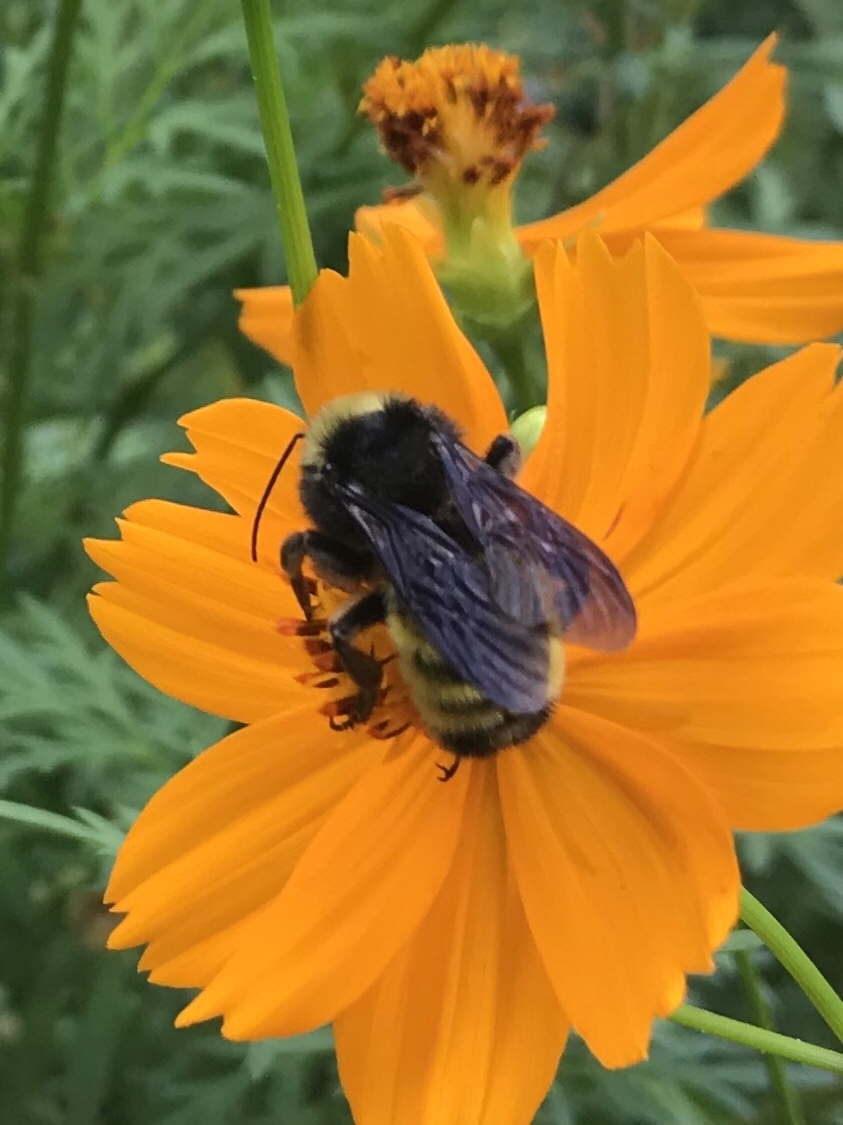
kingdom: Animalia
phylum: Arthropoda
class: Insecta
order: Hymenoptera
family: Apidae
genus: Bombus
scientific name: Bombus pensylvanicus
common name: Bumble bee
